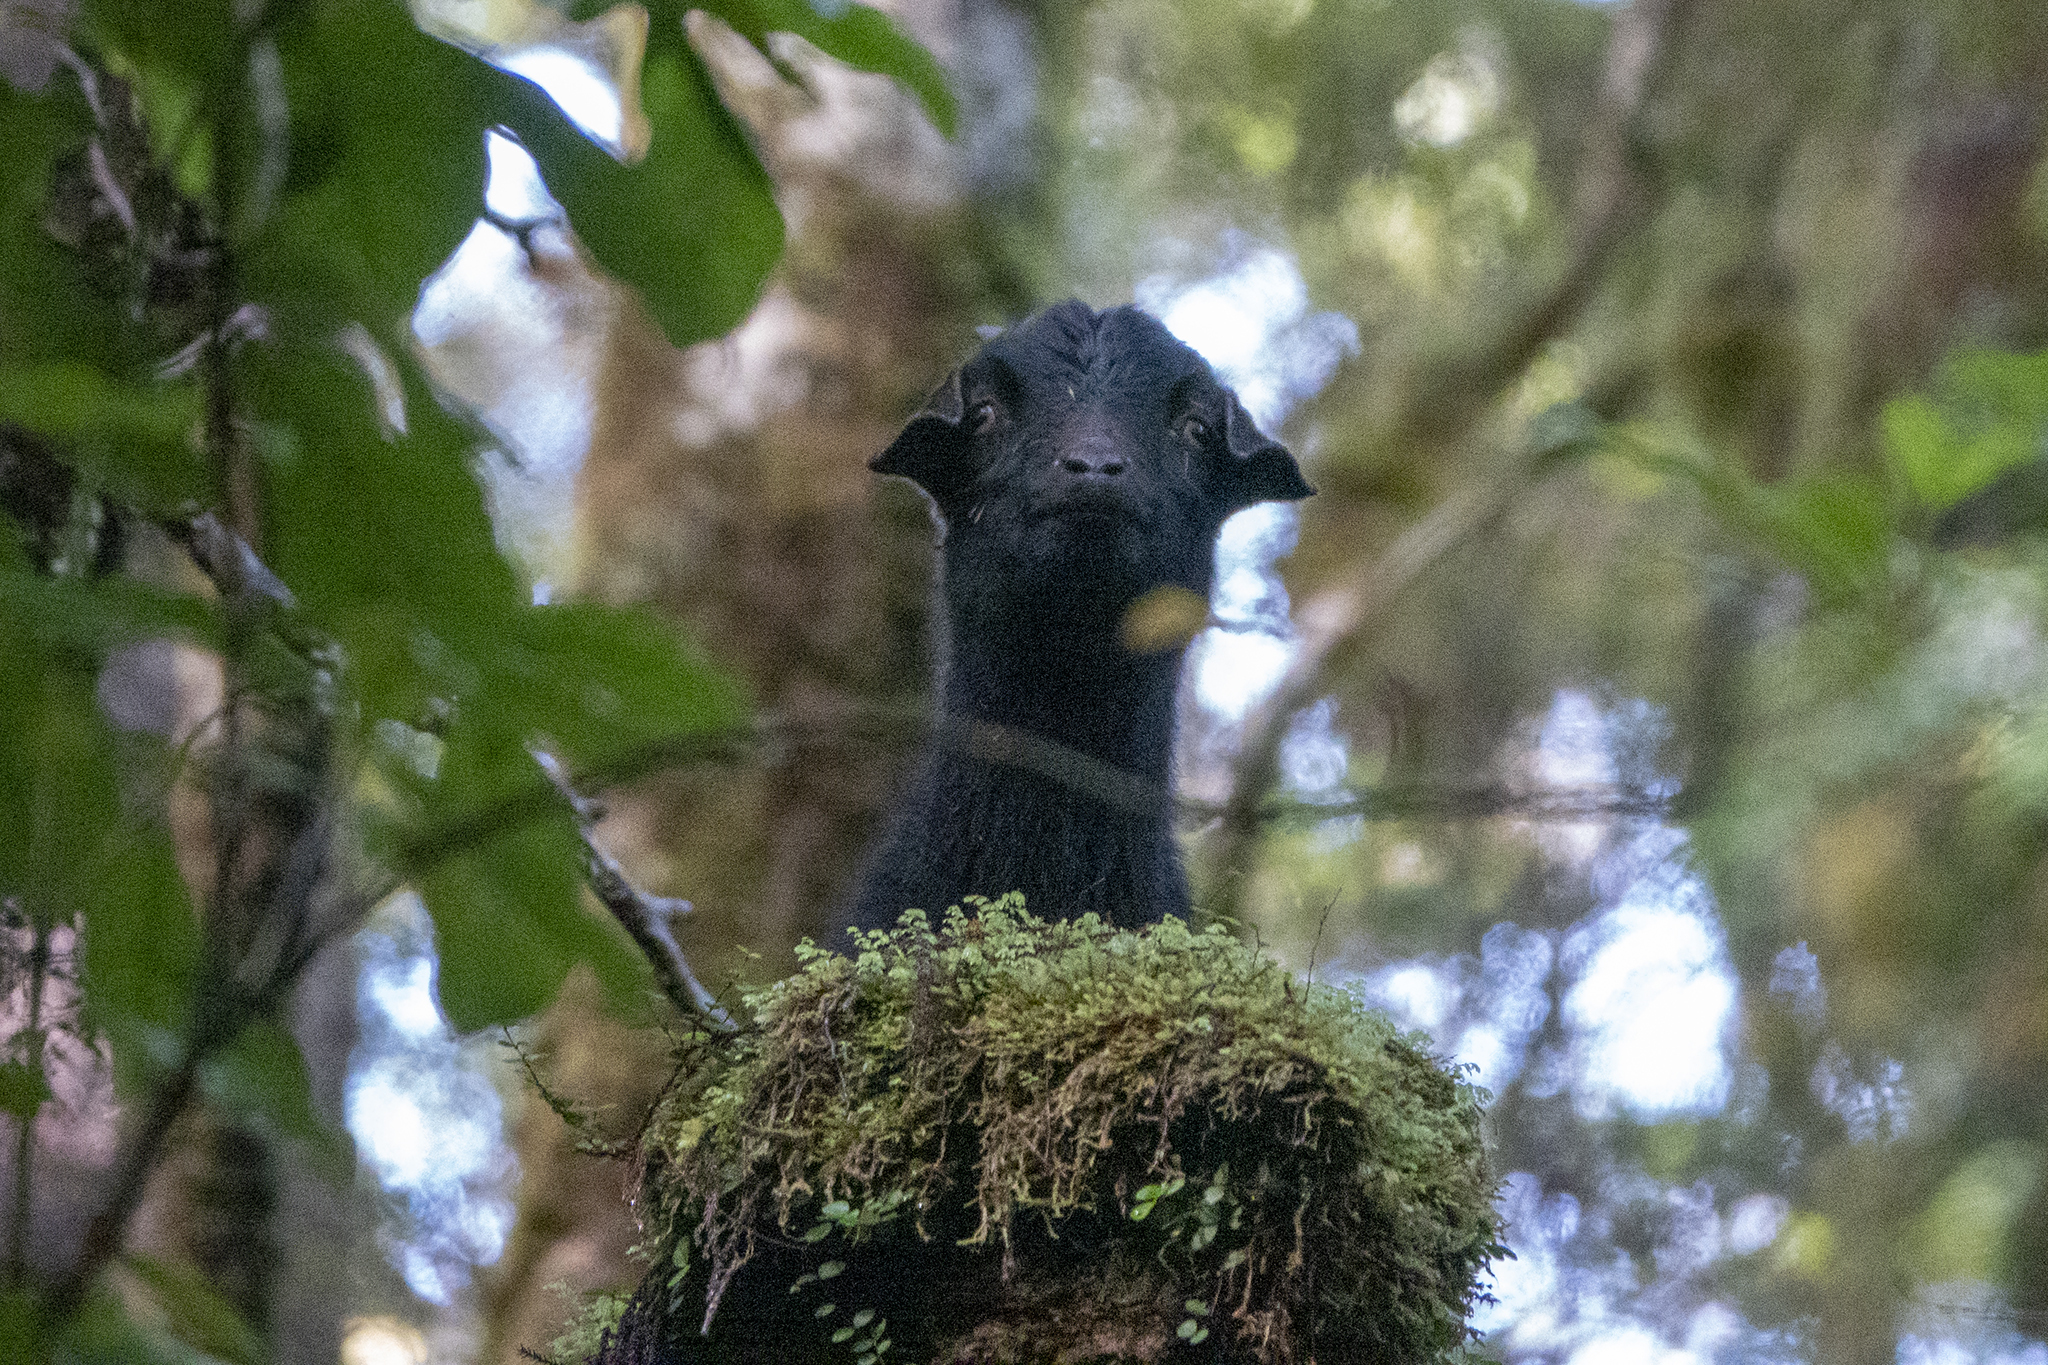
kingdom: Animalia
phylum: Chordata
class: Mammalia
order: Artiodactyla
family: Bovidae
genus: Capra
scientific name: Capra hircus
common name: Domestic goat
